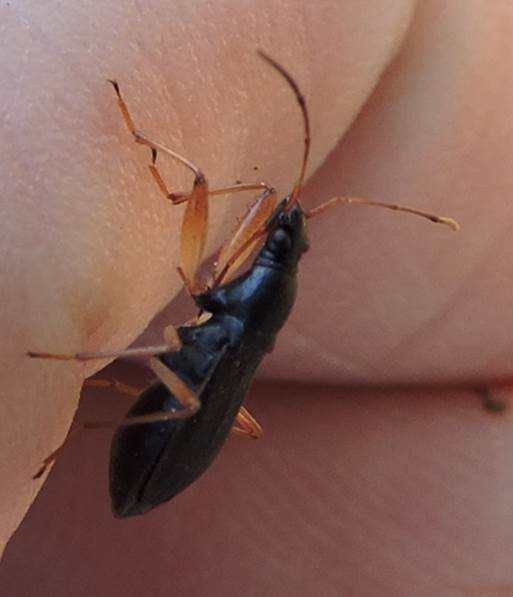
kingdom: Animalia
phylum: Arthropoda
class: Insecta
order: Hemiptera
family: Rhyparochromidae
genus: Cnemodus
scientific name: Cnemodus mavortius
